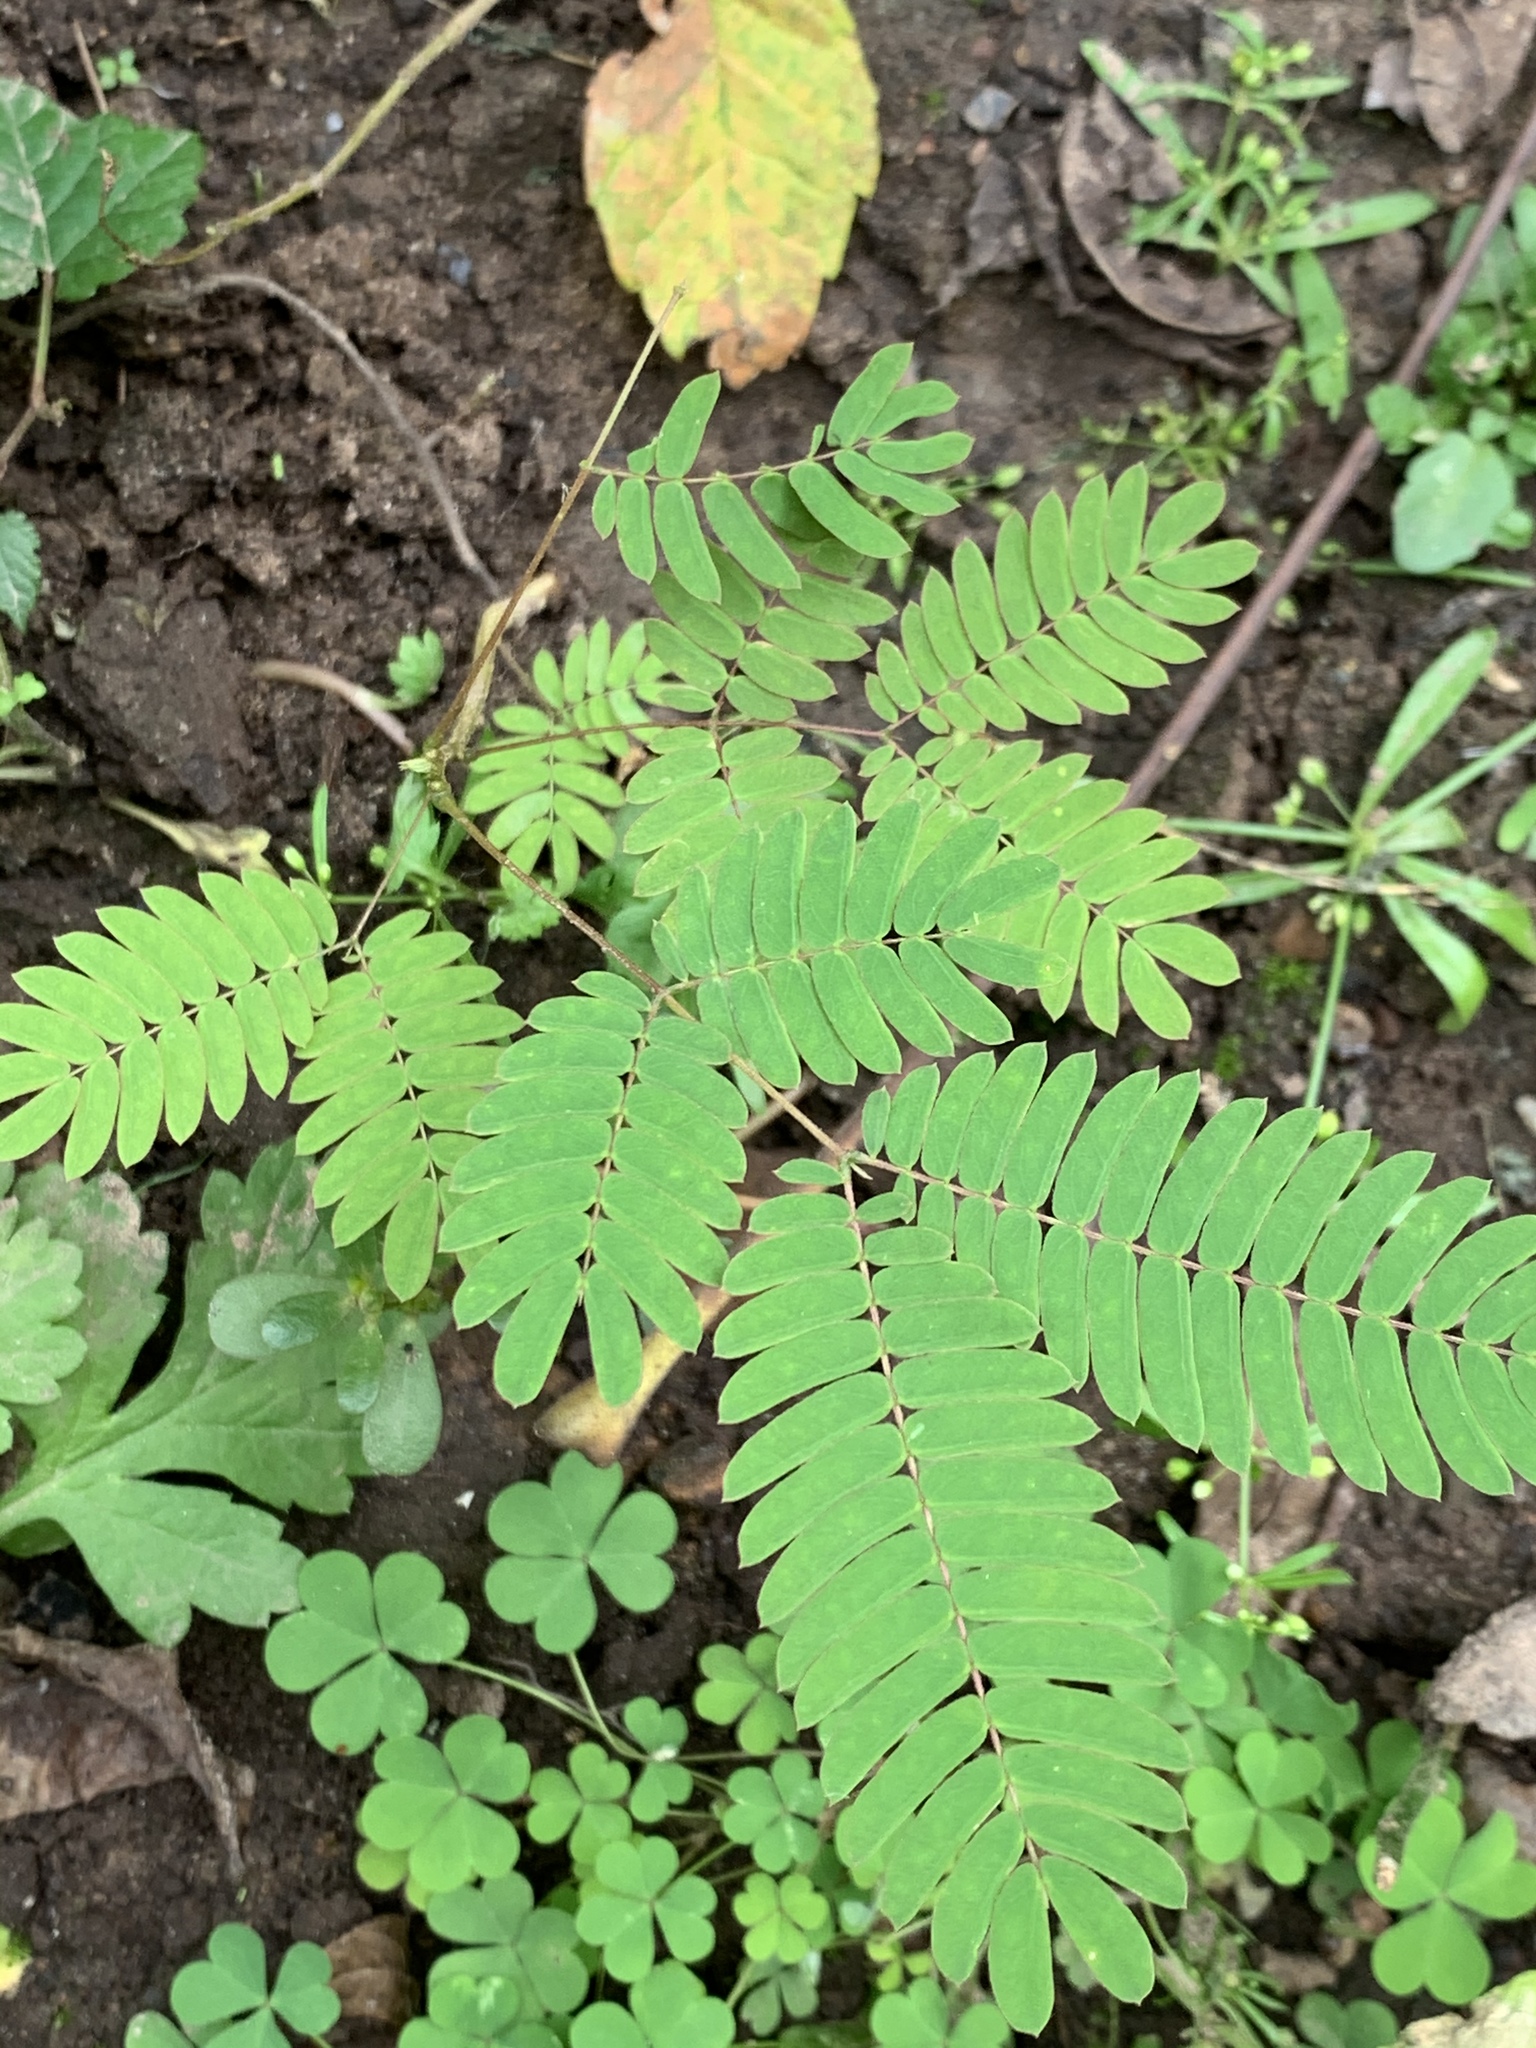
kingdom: Plantae
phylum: Tracheophyta
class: Magnoliopsida
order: Fabales
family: Fabaceae
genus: Albizia
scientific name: Albizia julibrissin
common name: Silktree
